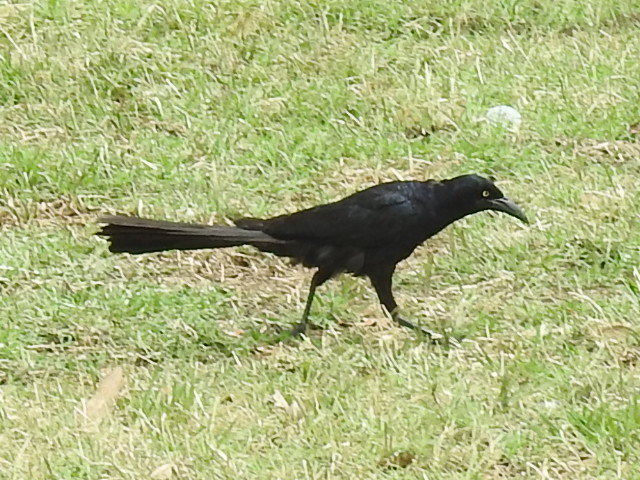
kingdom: Animalia
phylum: Chordata
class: Aves
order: Passeriformes
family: Icteridae
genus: Quiscalus
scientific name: Quiscalus mexicanus
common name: Great-tailed grackle
